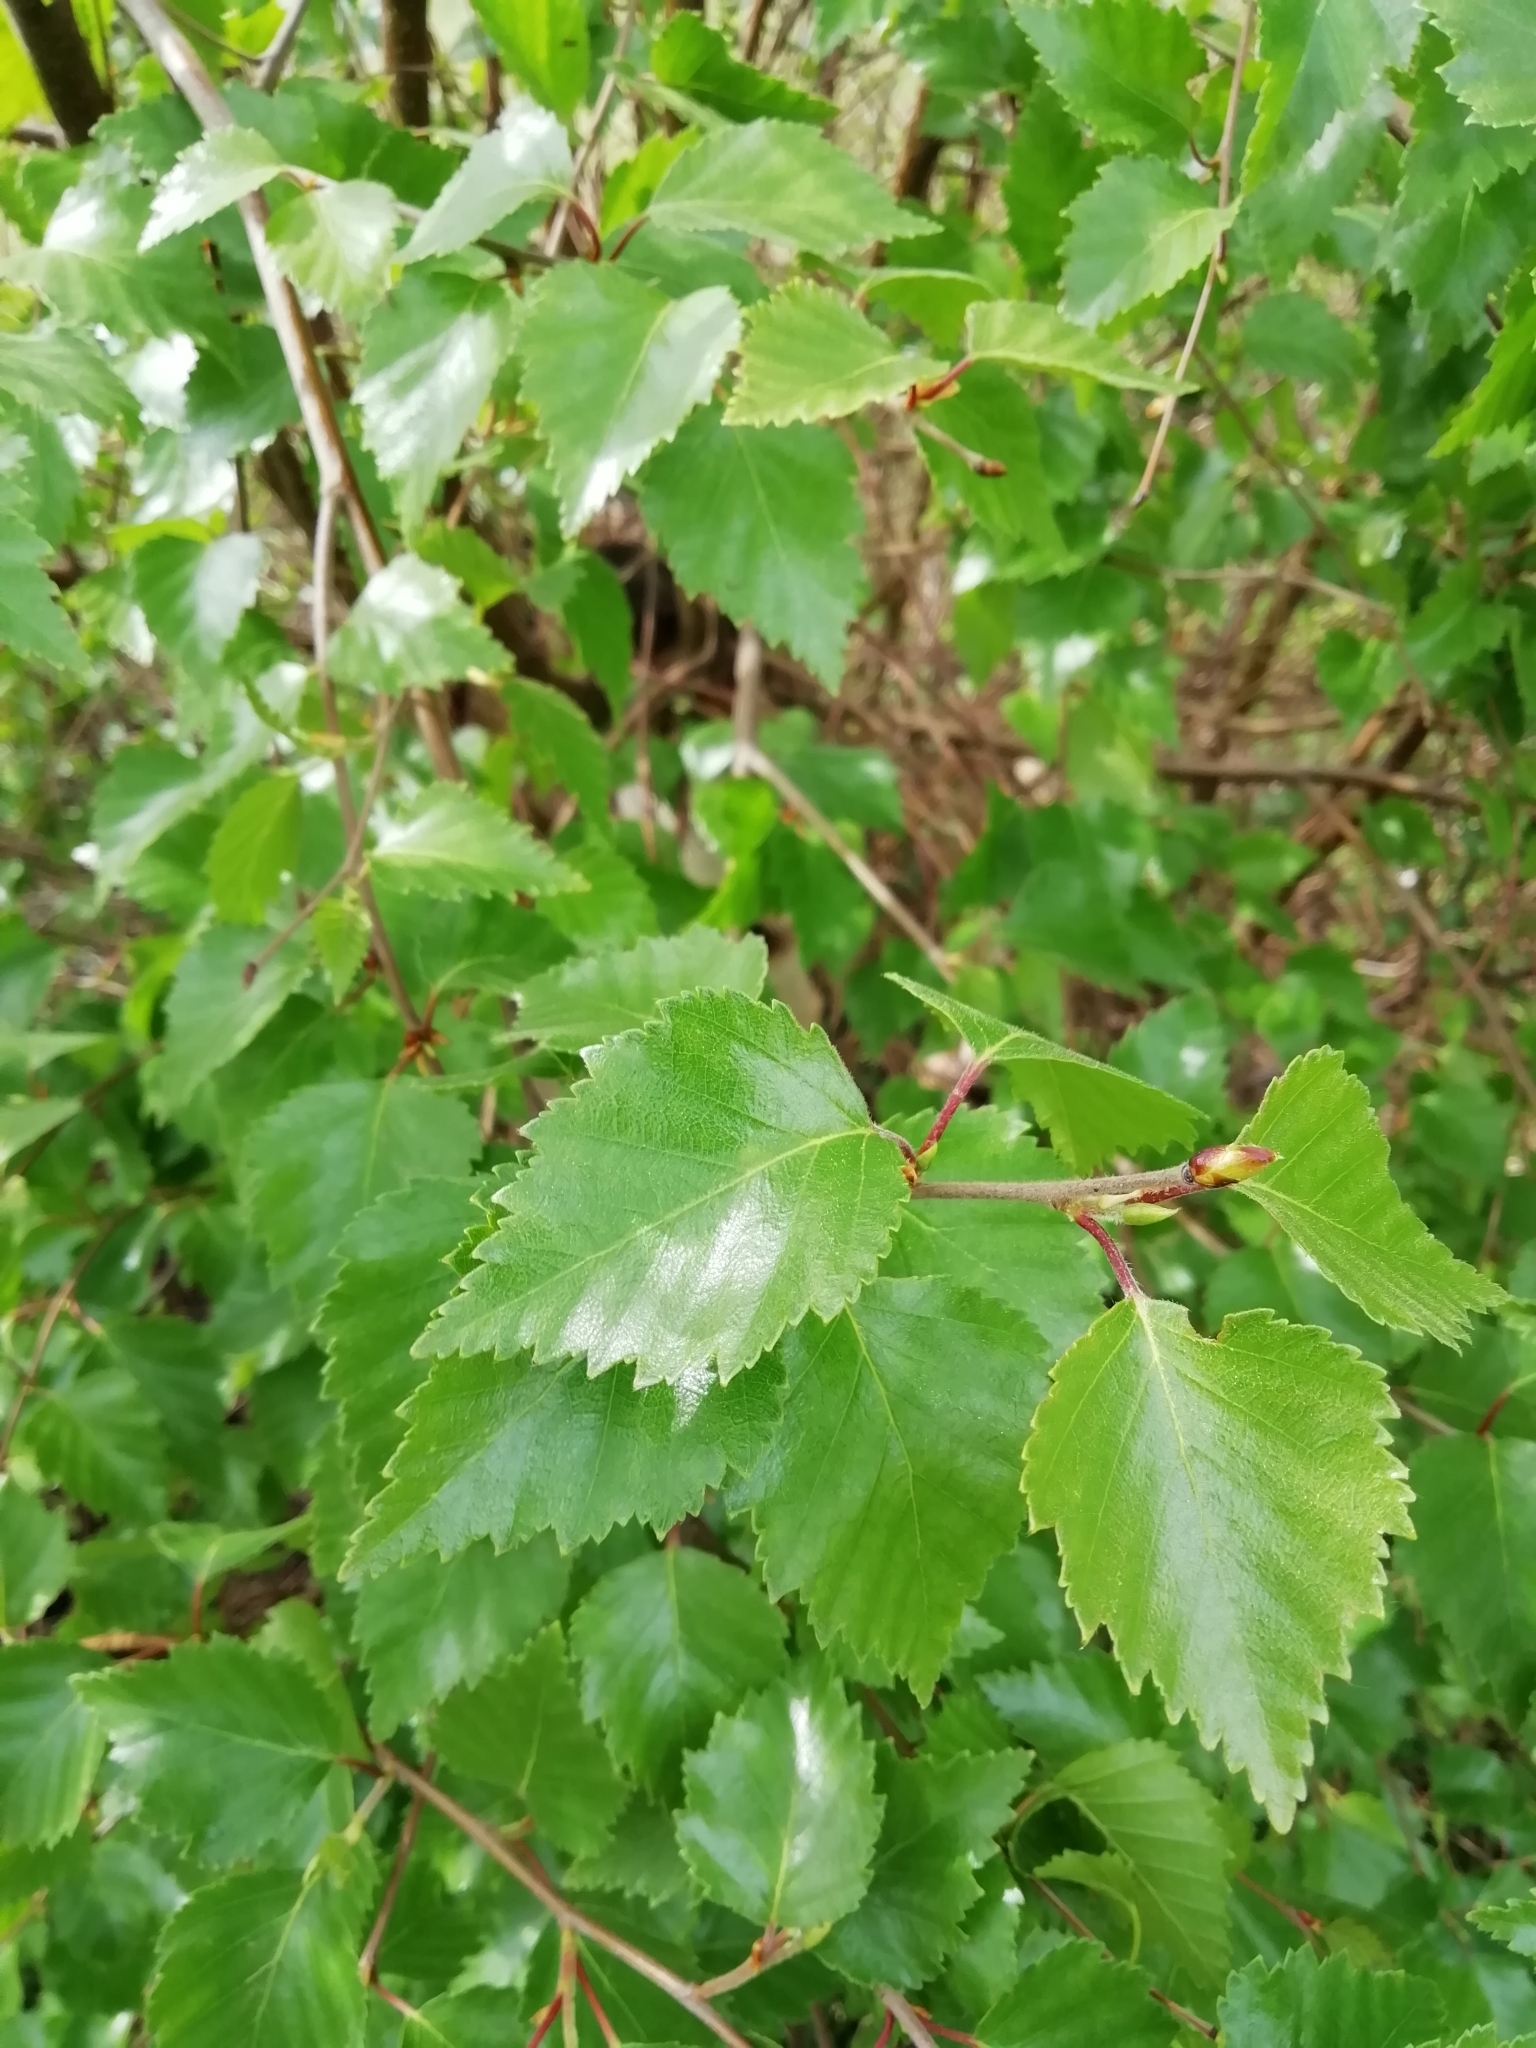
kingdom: Plantae
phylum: Tracheophyta
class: Magnoliopsida
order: Fagales
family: Betulaceae
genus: Betula
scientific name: Betula pendula
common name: Silver birch
